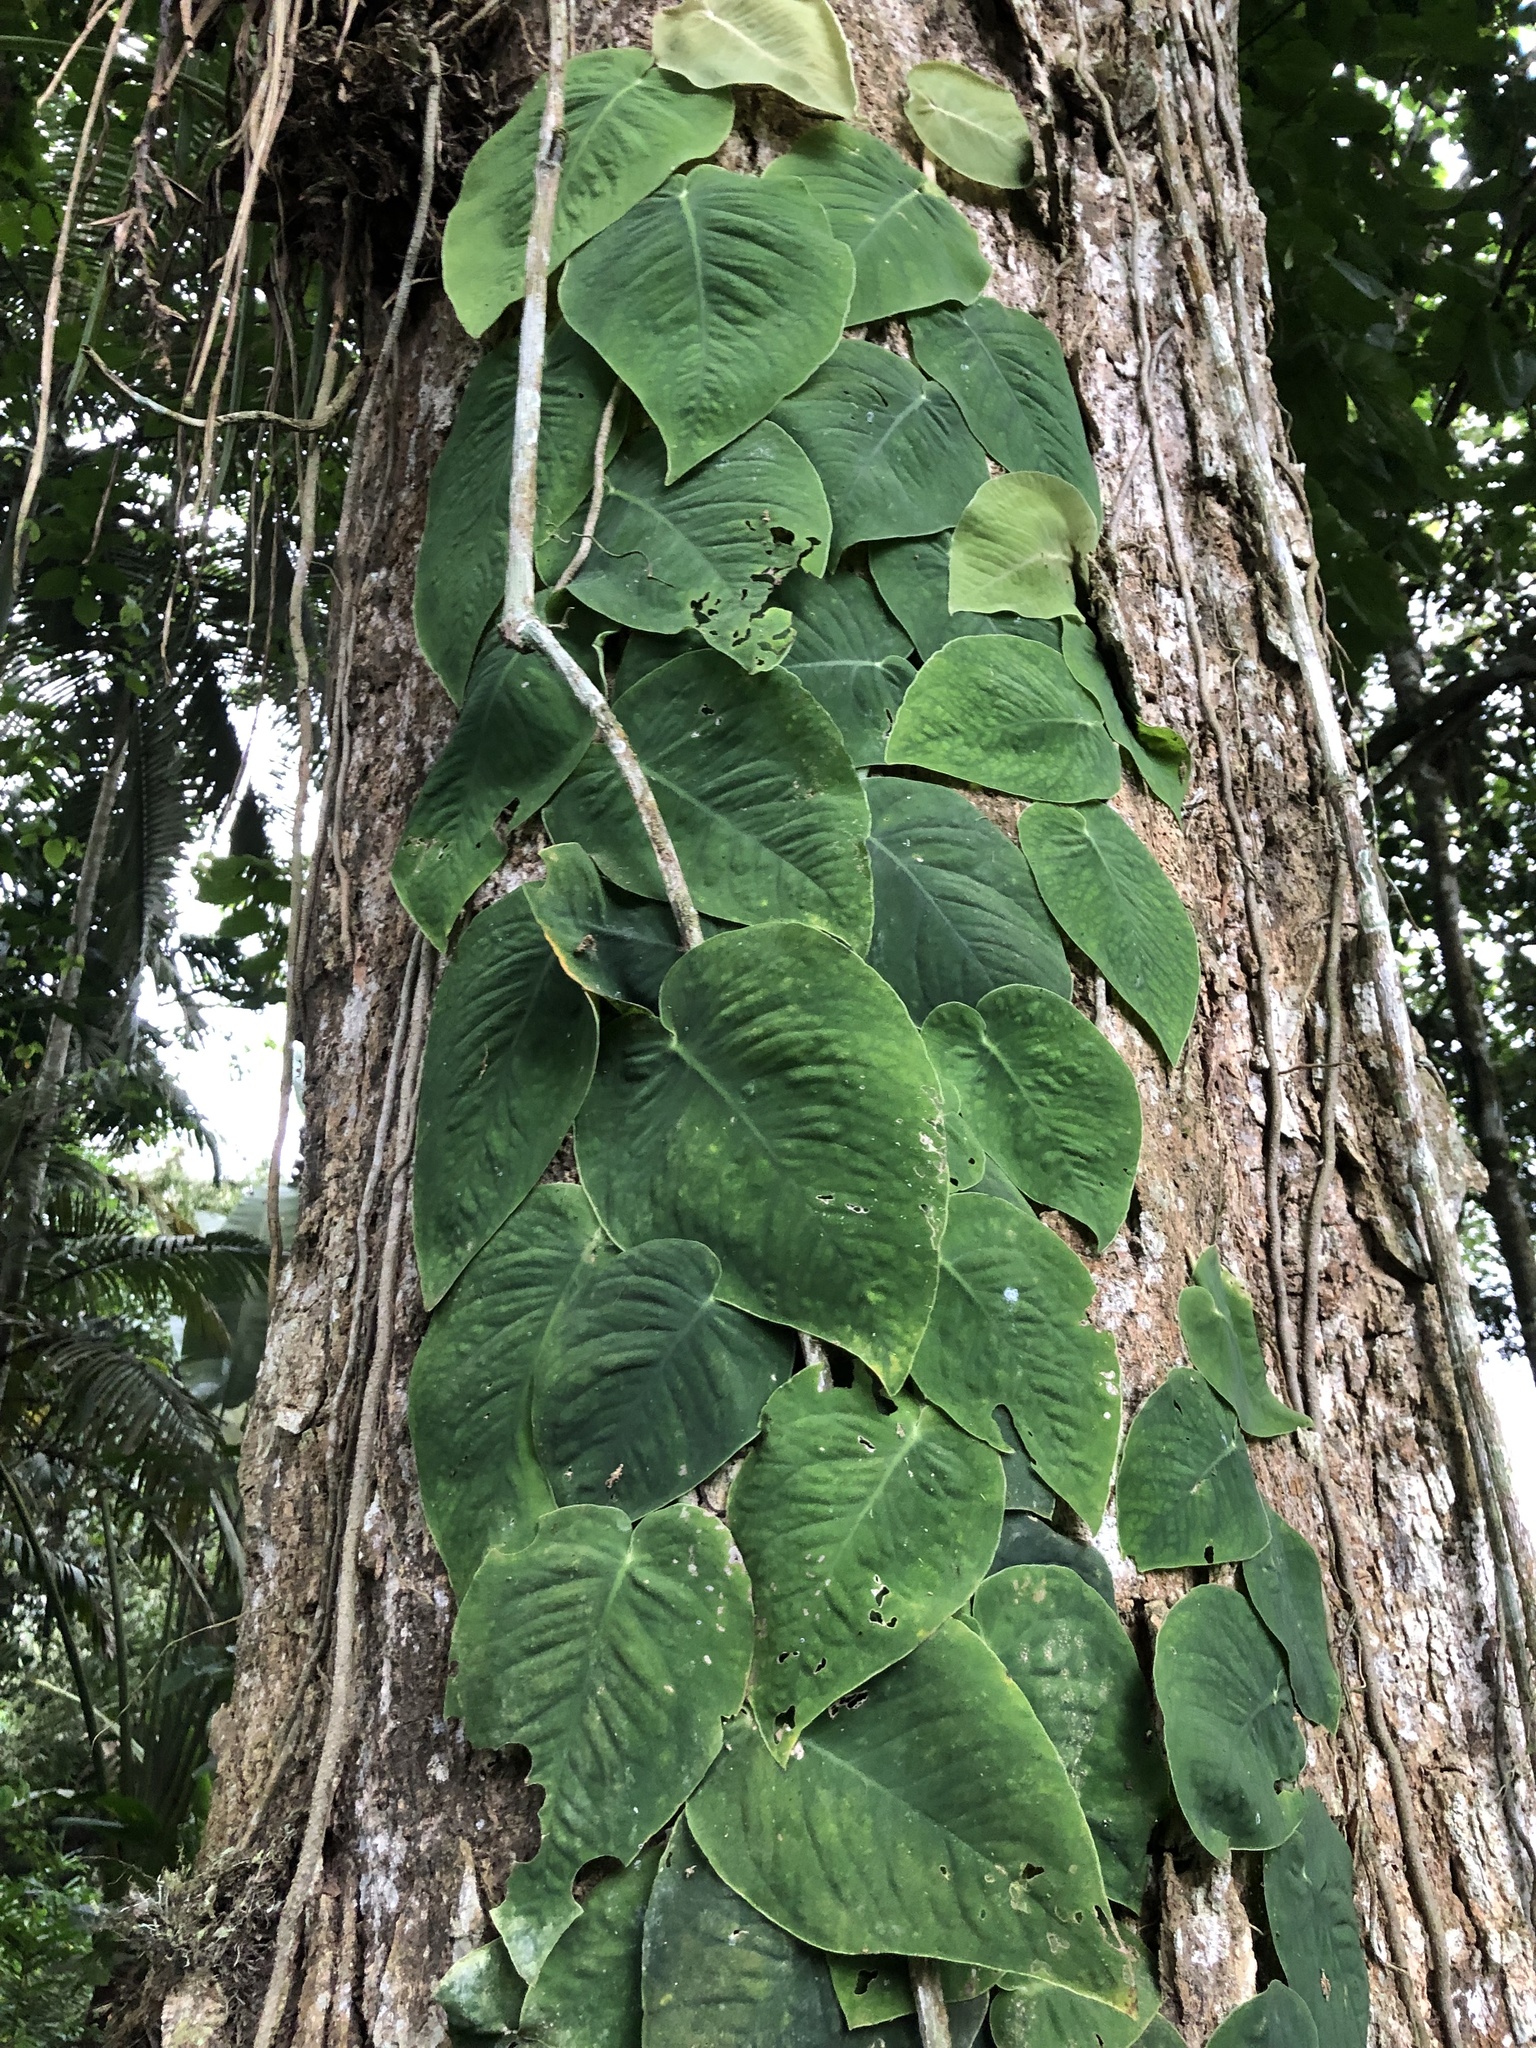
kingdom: Plantae
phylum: Tracheophyta
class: Liliopsida
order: Alismatales
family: Araceae
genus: Monstera
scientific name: Monstera dubia
